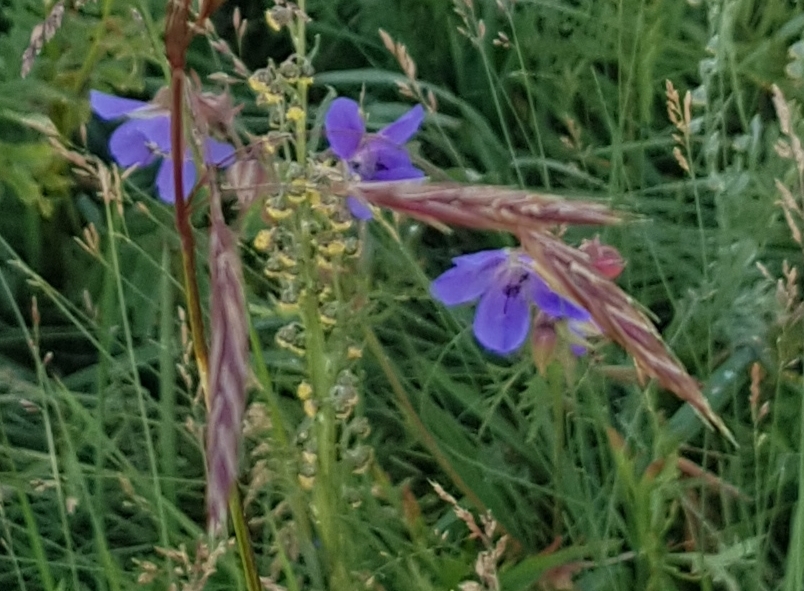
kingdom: Plantae
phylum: Tracheophyta
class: Magnoliopsida
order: Geraniales
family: Geraniaceae
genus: Geranium
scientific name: Geranium pratense
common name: Meadow crane's-bill
